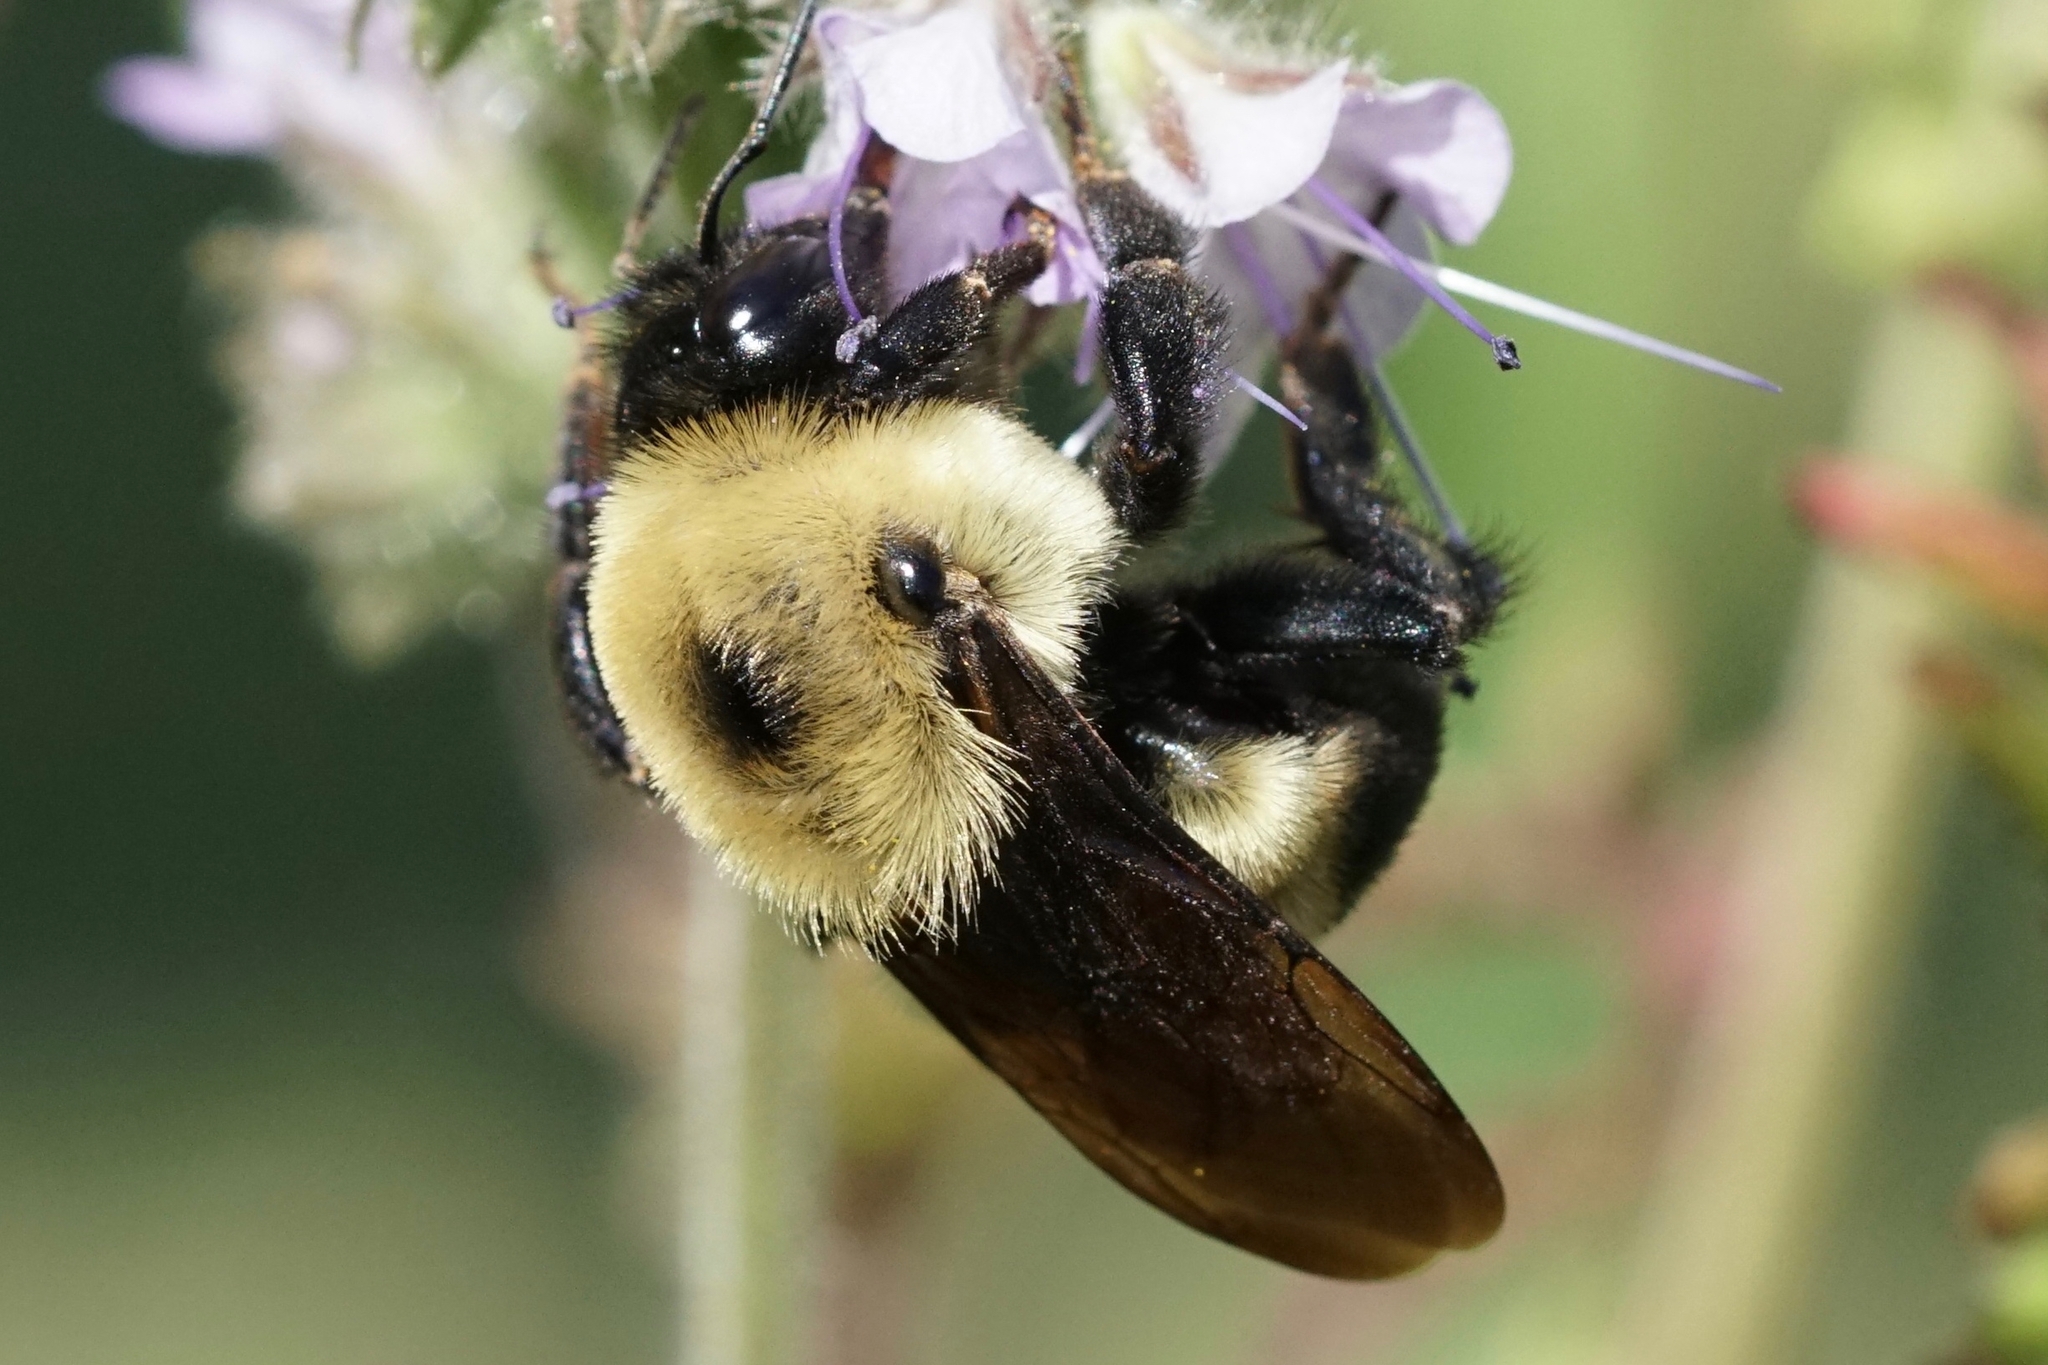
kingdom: Animalia
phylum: Arthropoda
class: Insecta
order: Hymenoptera
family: Apidae
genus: Bombus
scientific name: Bombus griseocollis
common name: Brown-belted bumble bee
